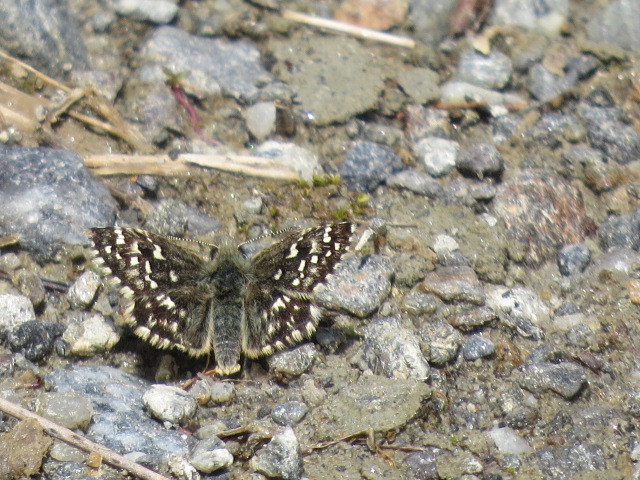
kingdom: Animalia
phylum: Arthropoda
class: Insecta
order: Lepidoptera
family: Hesperiidae
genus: Pyrgus
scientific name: Pyrgus malvoides
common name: Southern grizzled skipper
